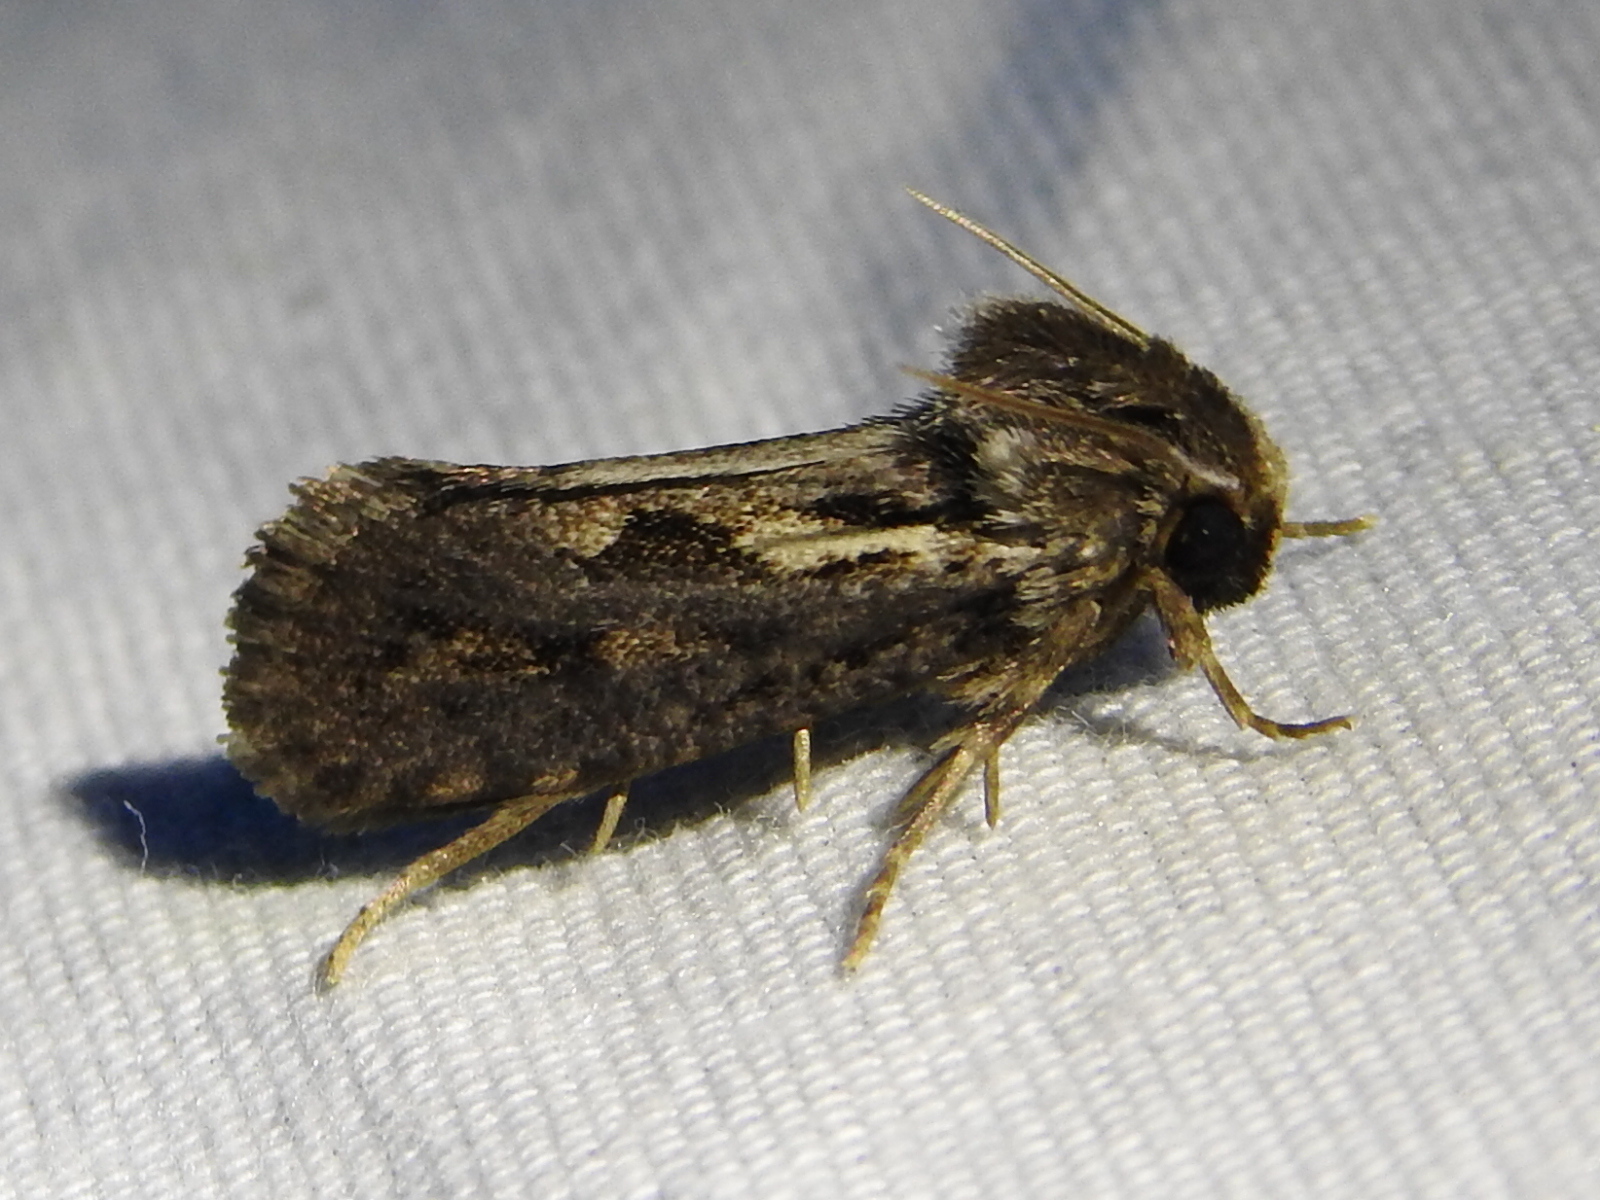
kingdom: Animalia
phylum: Arthropoda
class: Insecta
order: Lepidoptera
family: Tineidae
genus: Acrolophus
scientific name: Acrolophus popeanella
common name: Clemens' grass tubeworm moth
